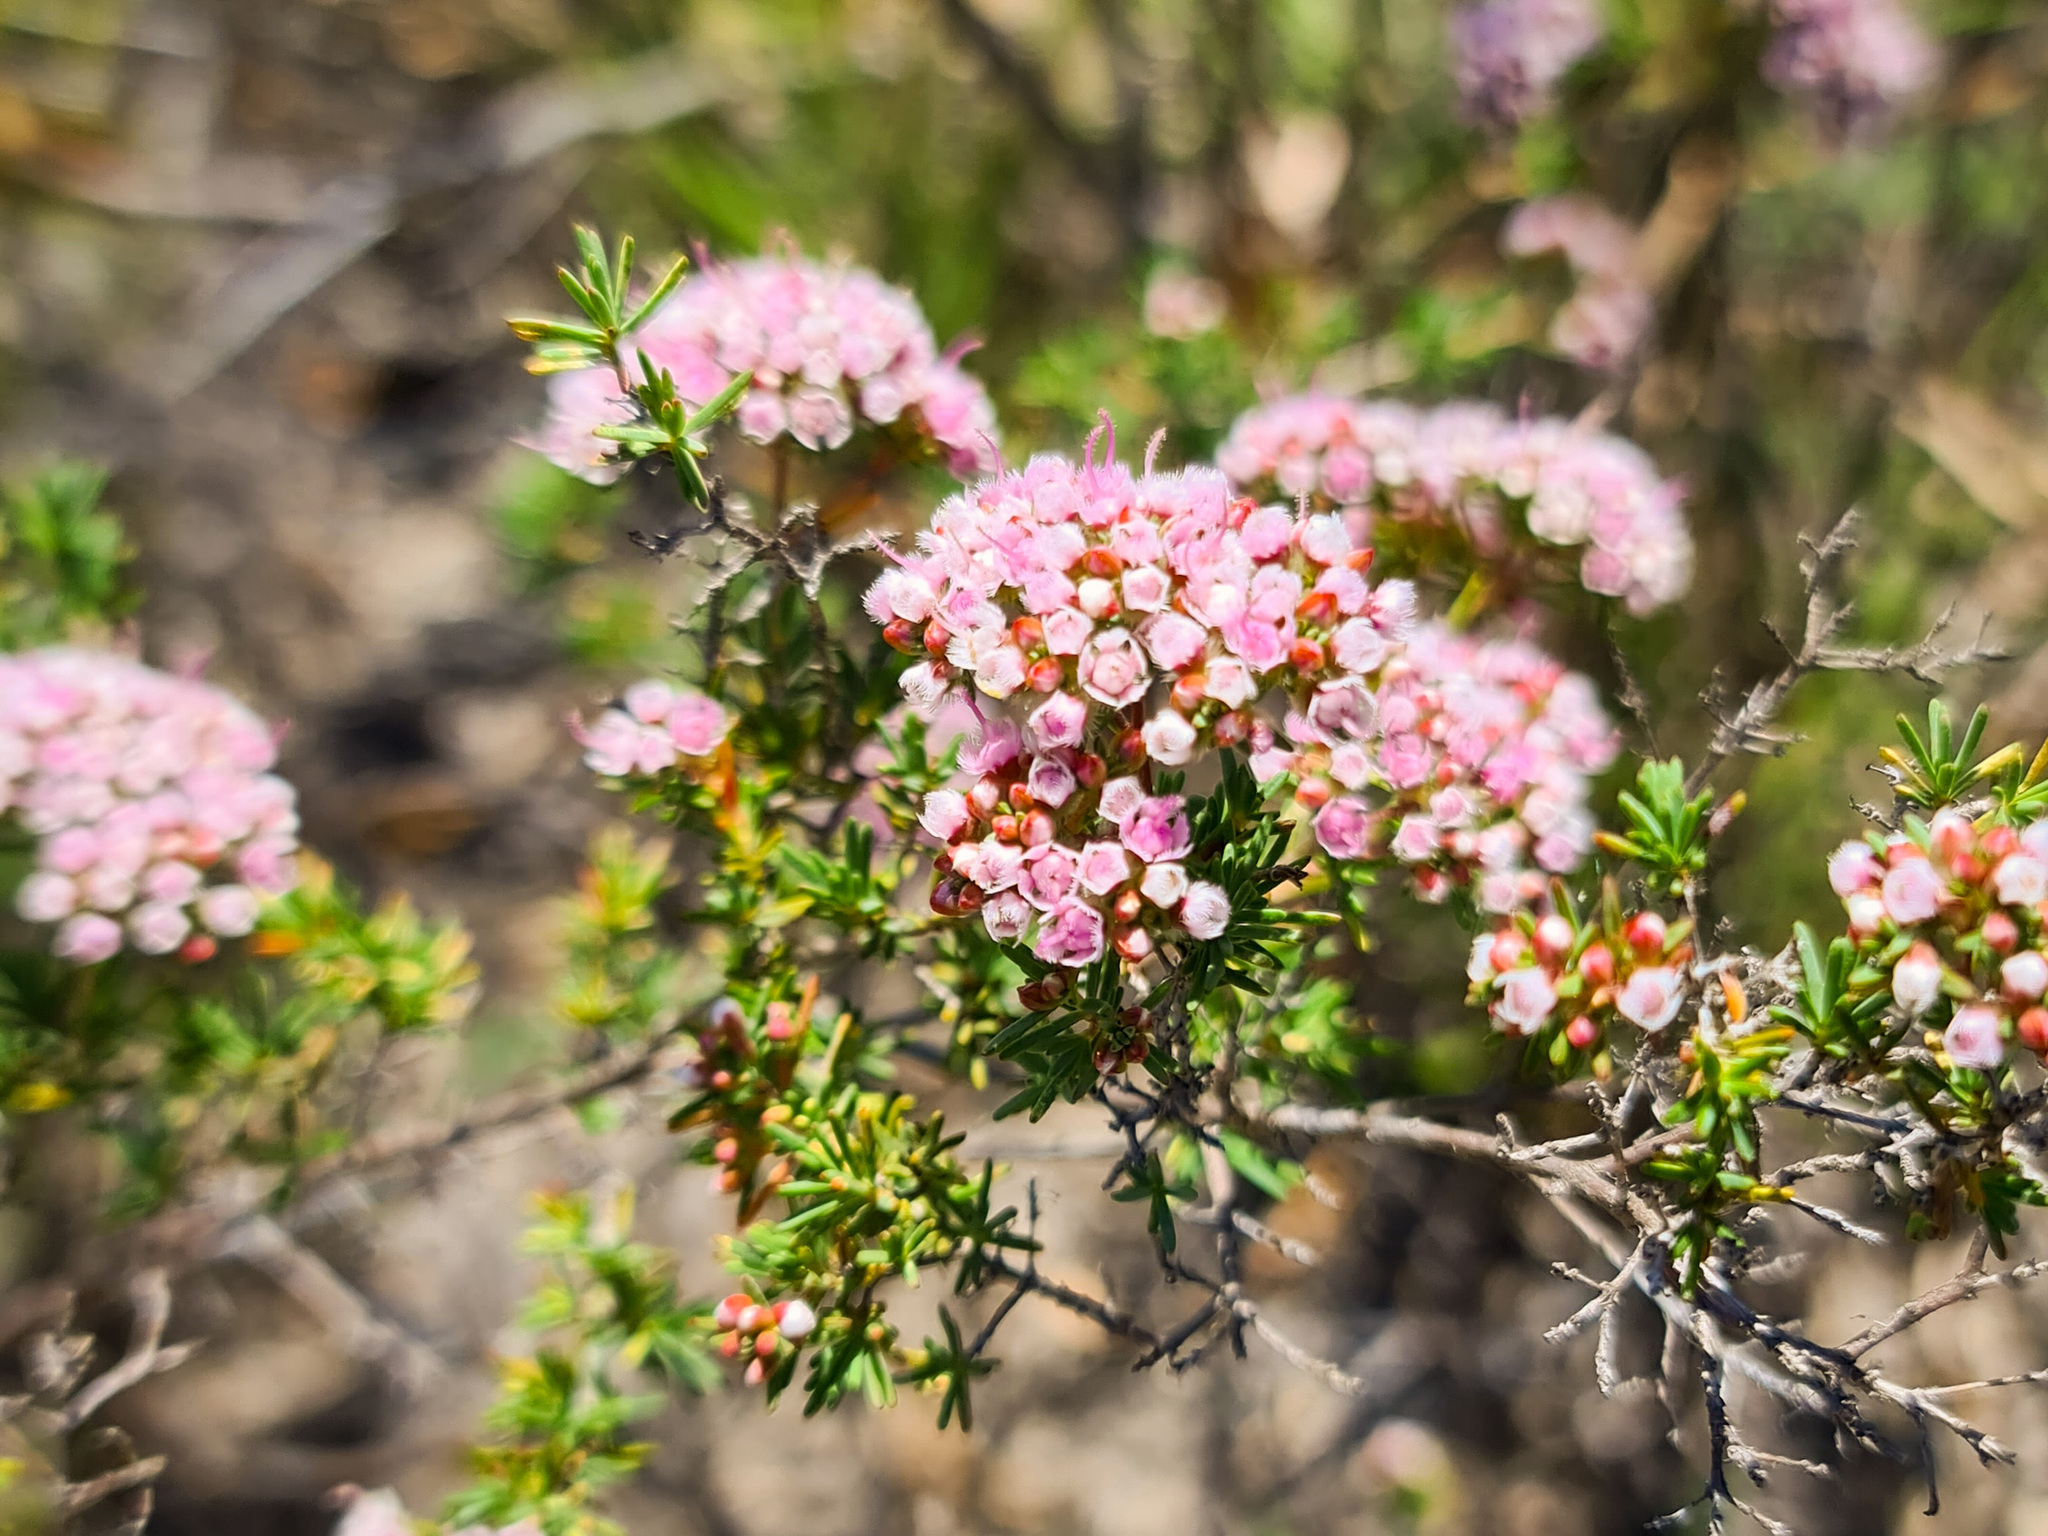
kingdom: Plantae
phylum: Tracheophyta
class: Magnoliopsida
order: Myrtales
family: Myrtaceae
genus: Verticordia
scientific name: Verticordia densiflora
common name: Compact feather-flower
